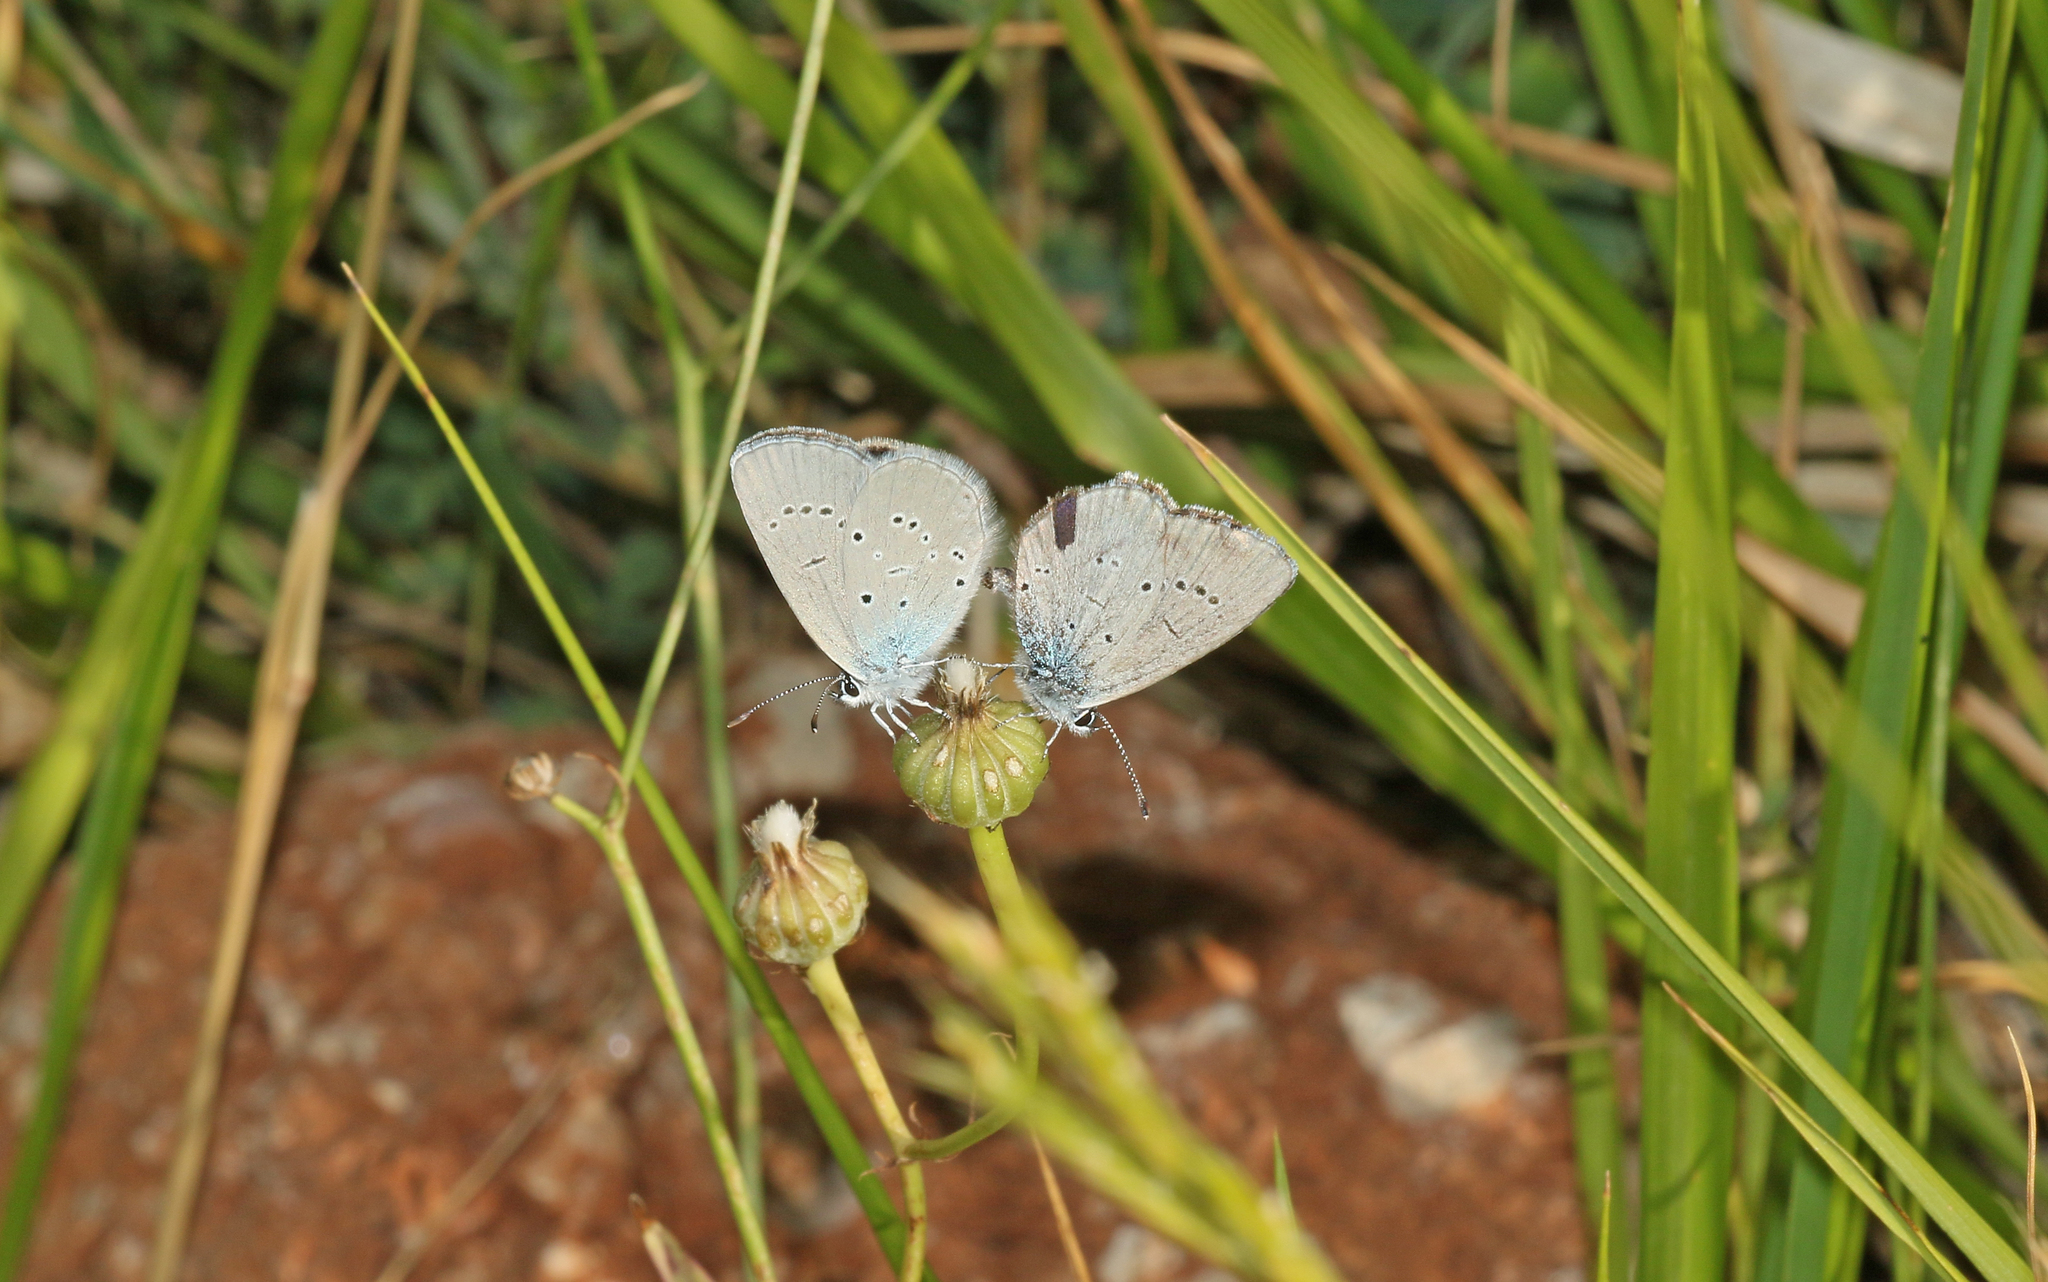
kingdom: Animalia
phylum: Arthropoda
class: Insecta
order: Lepidoptera
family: Lycaenidae
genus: Everes
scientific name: Everes sebrus
